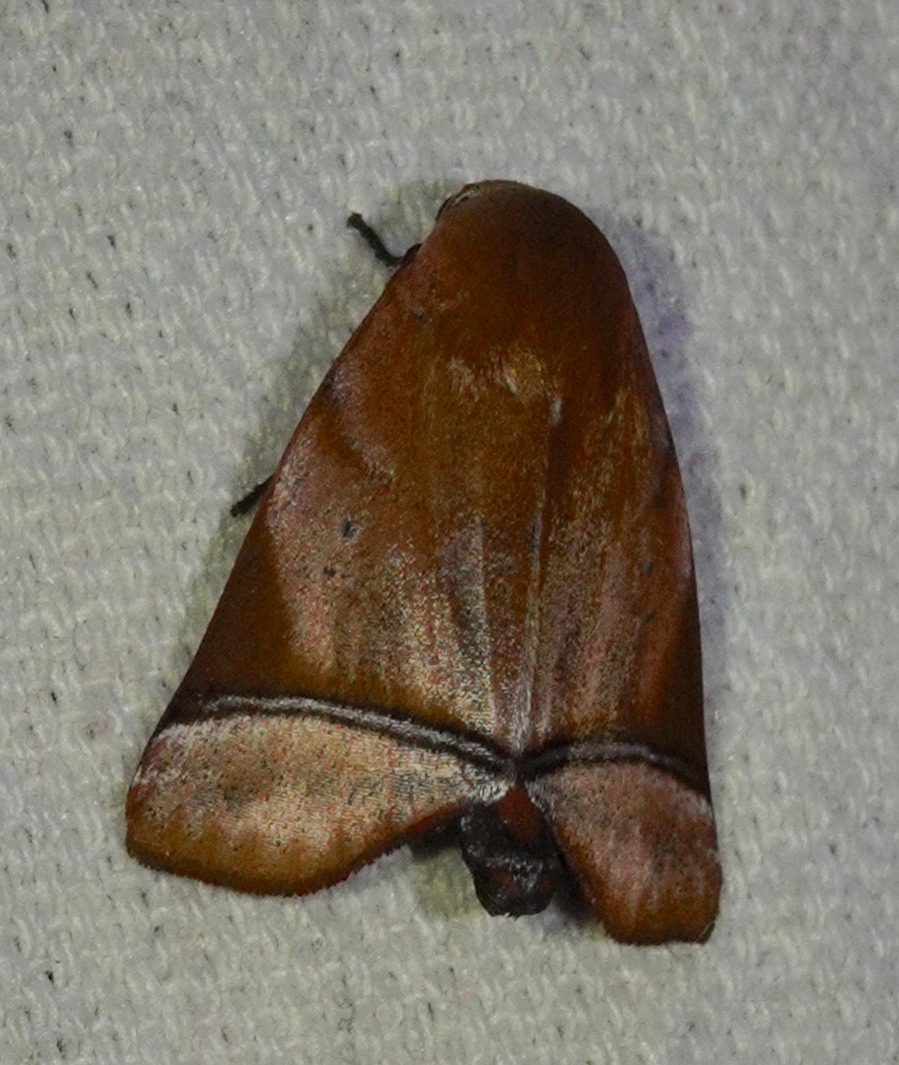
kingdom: Animalia
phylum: Arthropoda
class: Insecta
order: Lepidoptera
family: Nolidae
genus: Carea
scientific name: Carea varipes
